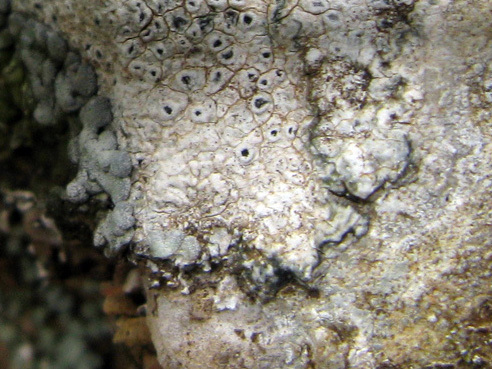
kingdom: Fungi
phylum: Ascomycota
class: Lecanoromycetes
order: Pertusariales
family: Megasporaceae
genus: Circinaria
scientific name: Circinaria calcarea
